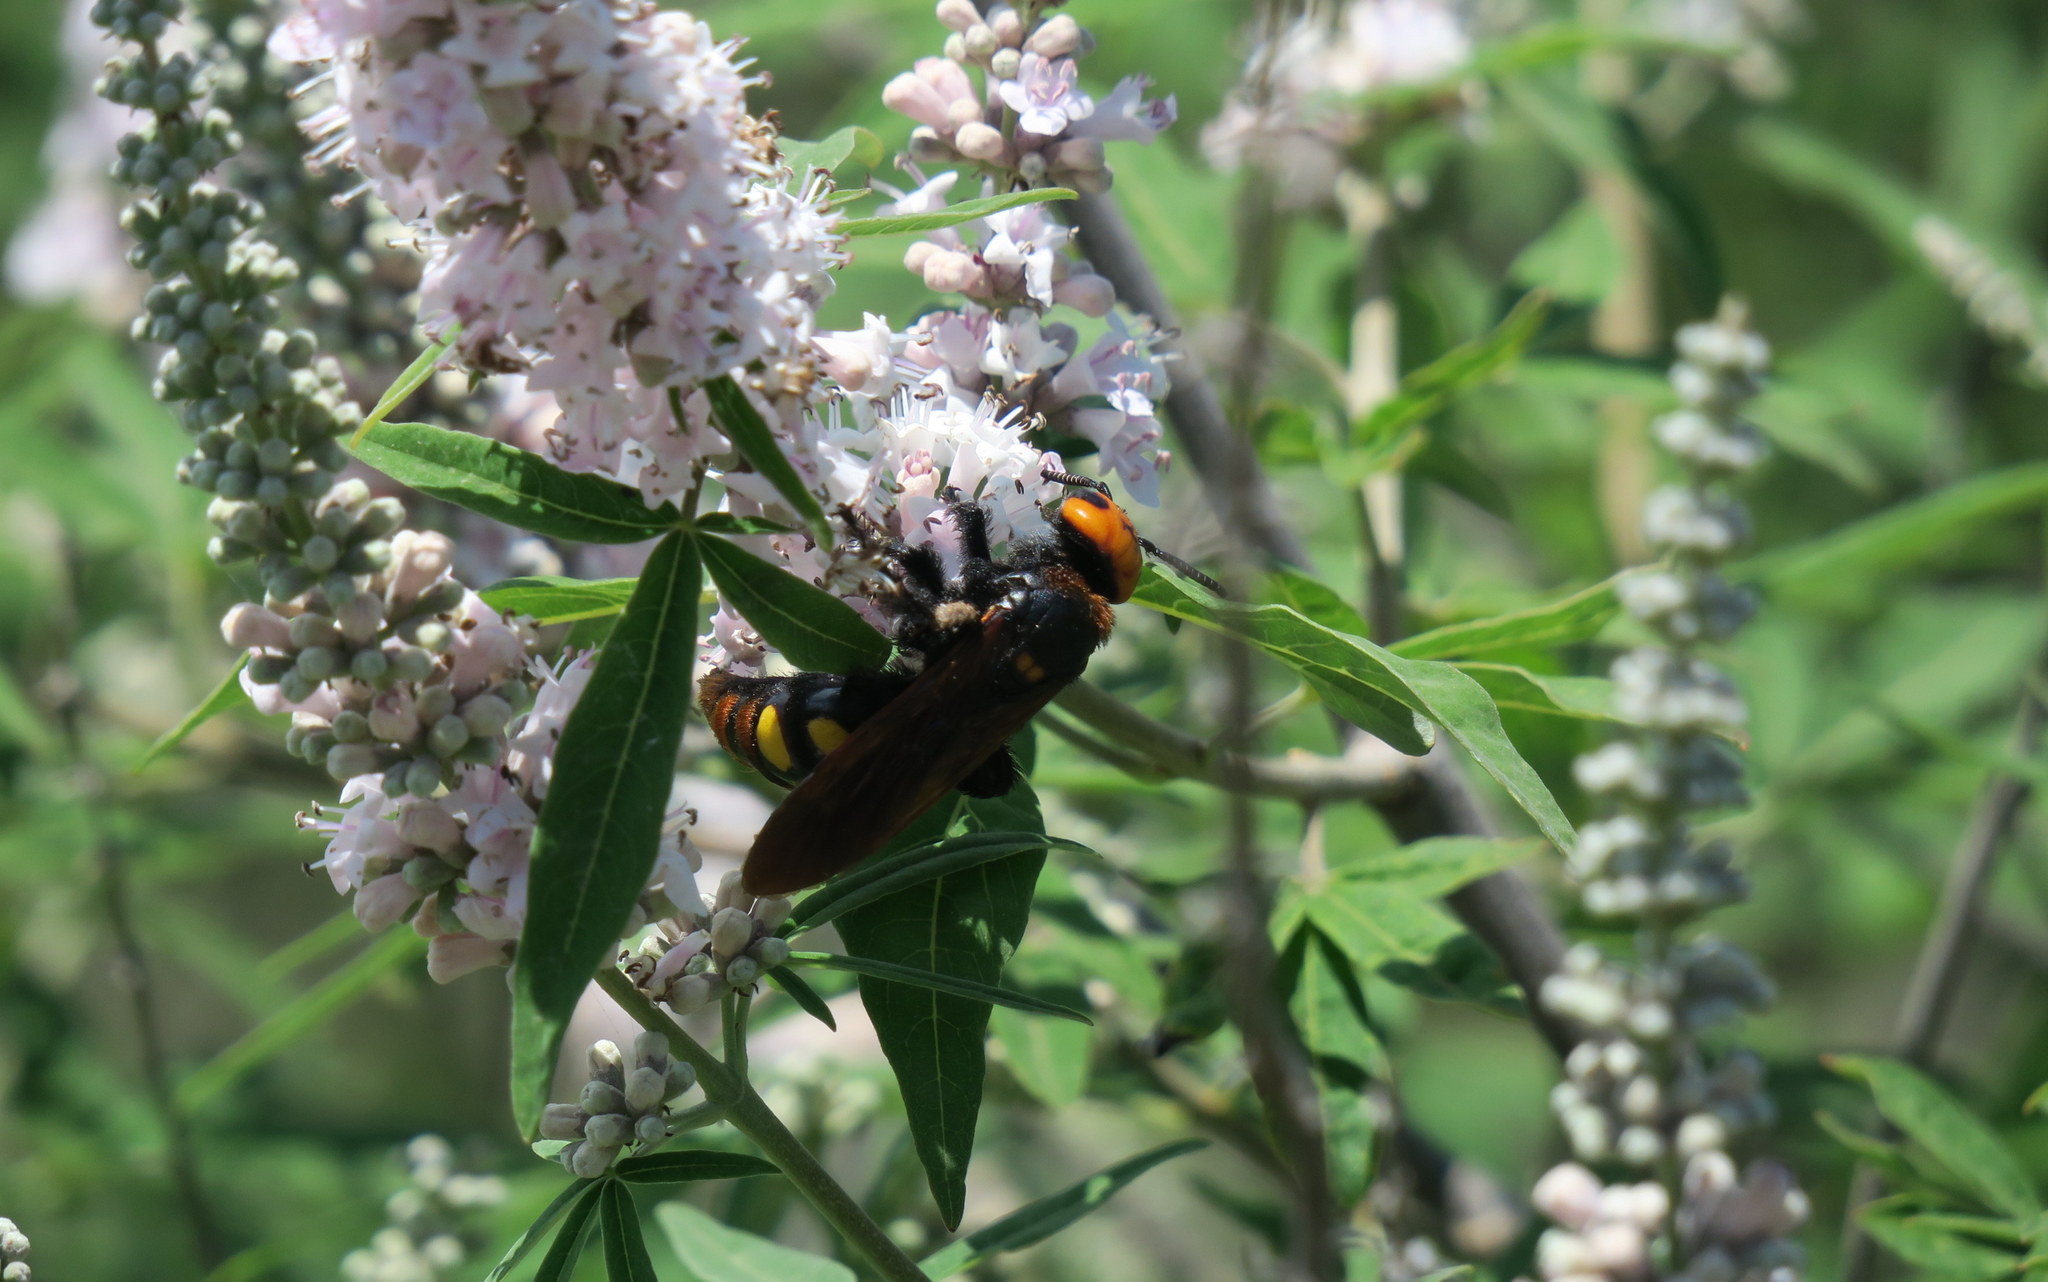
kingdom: Animalia
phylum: Arthropoda
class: Insecta
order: Hymenoptera
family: Scoliidae
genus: Megascolia
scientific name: Megascolia maculata
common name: Mammoth wasp
